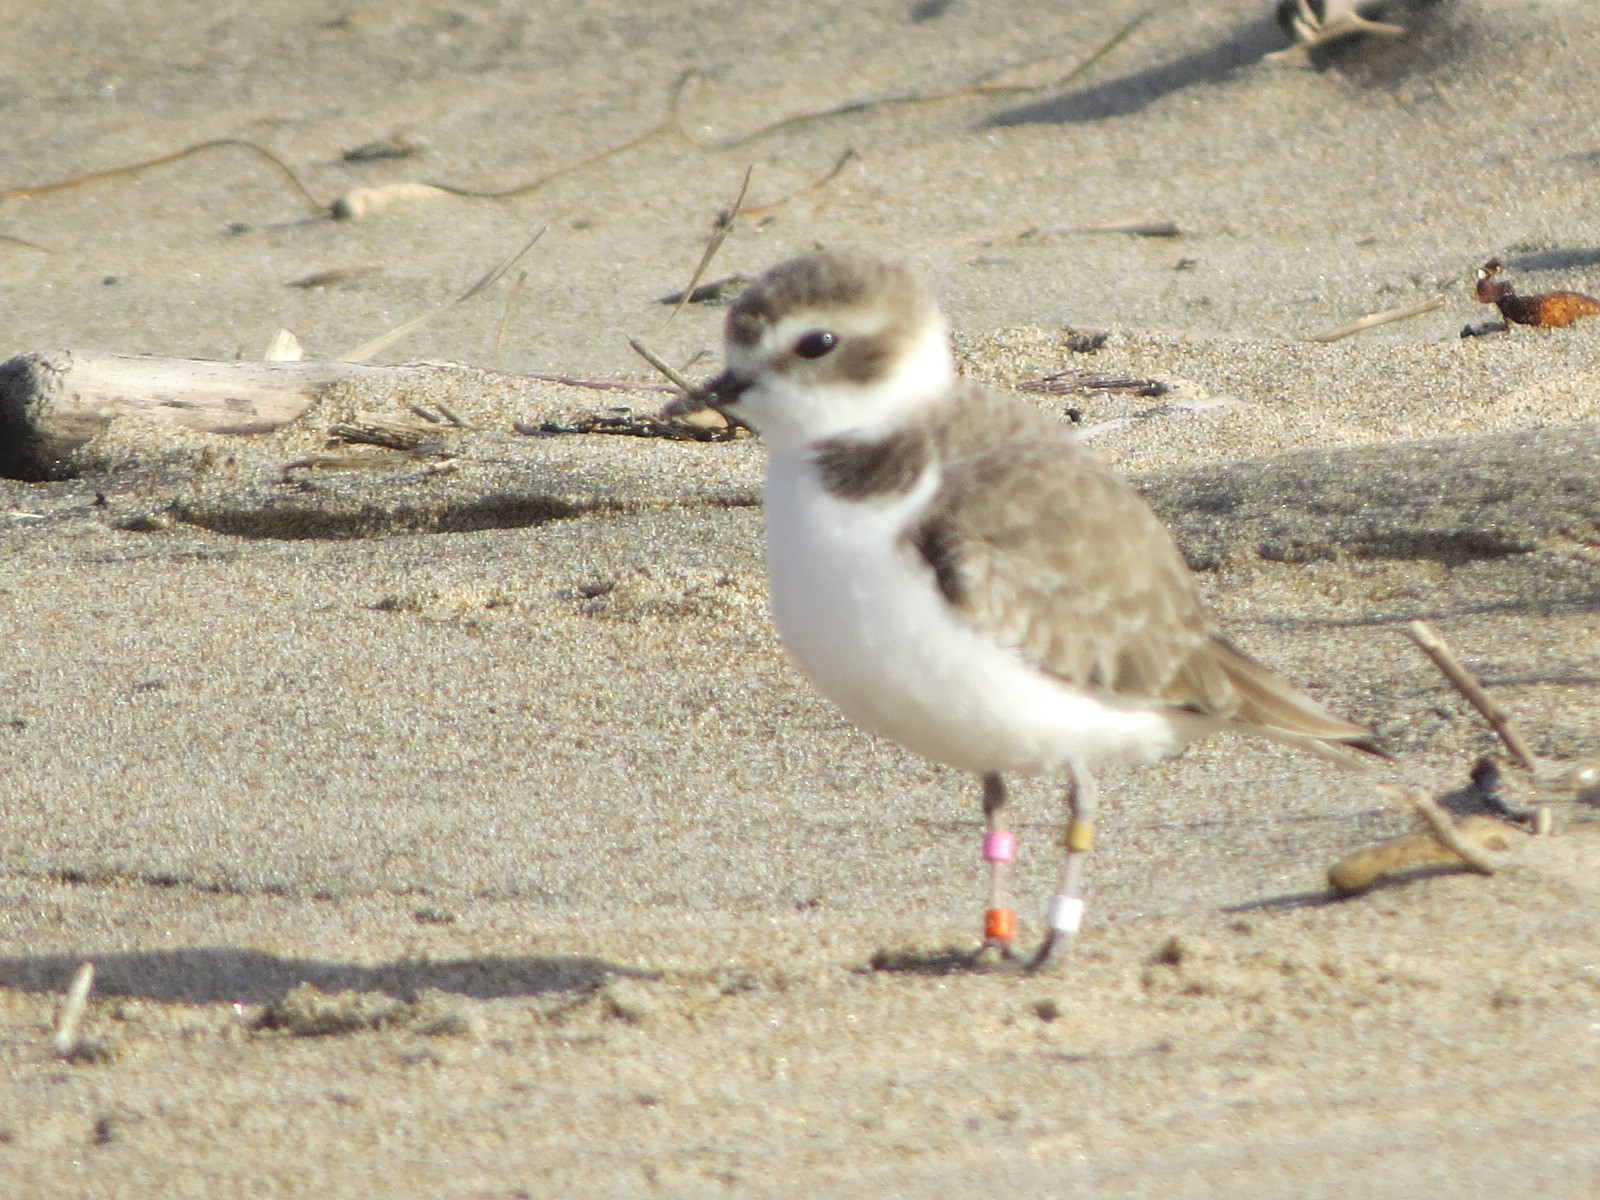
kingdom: Animalia
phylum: Chordata
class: Aves
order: Charadriiformes
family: Charadriidae
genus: Anarhynchus
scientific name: Anarhynchus
